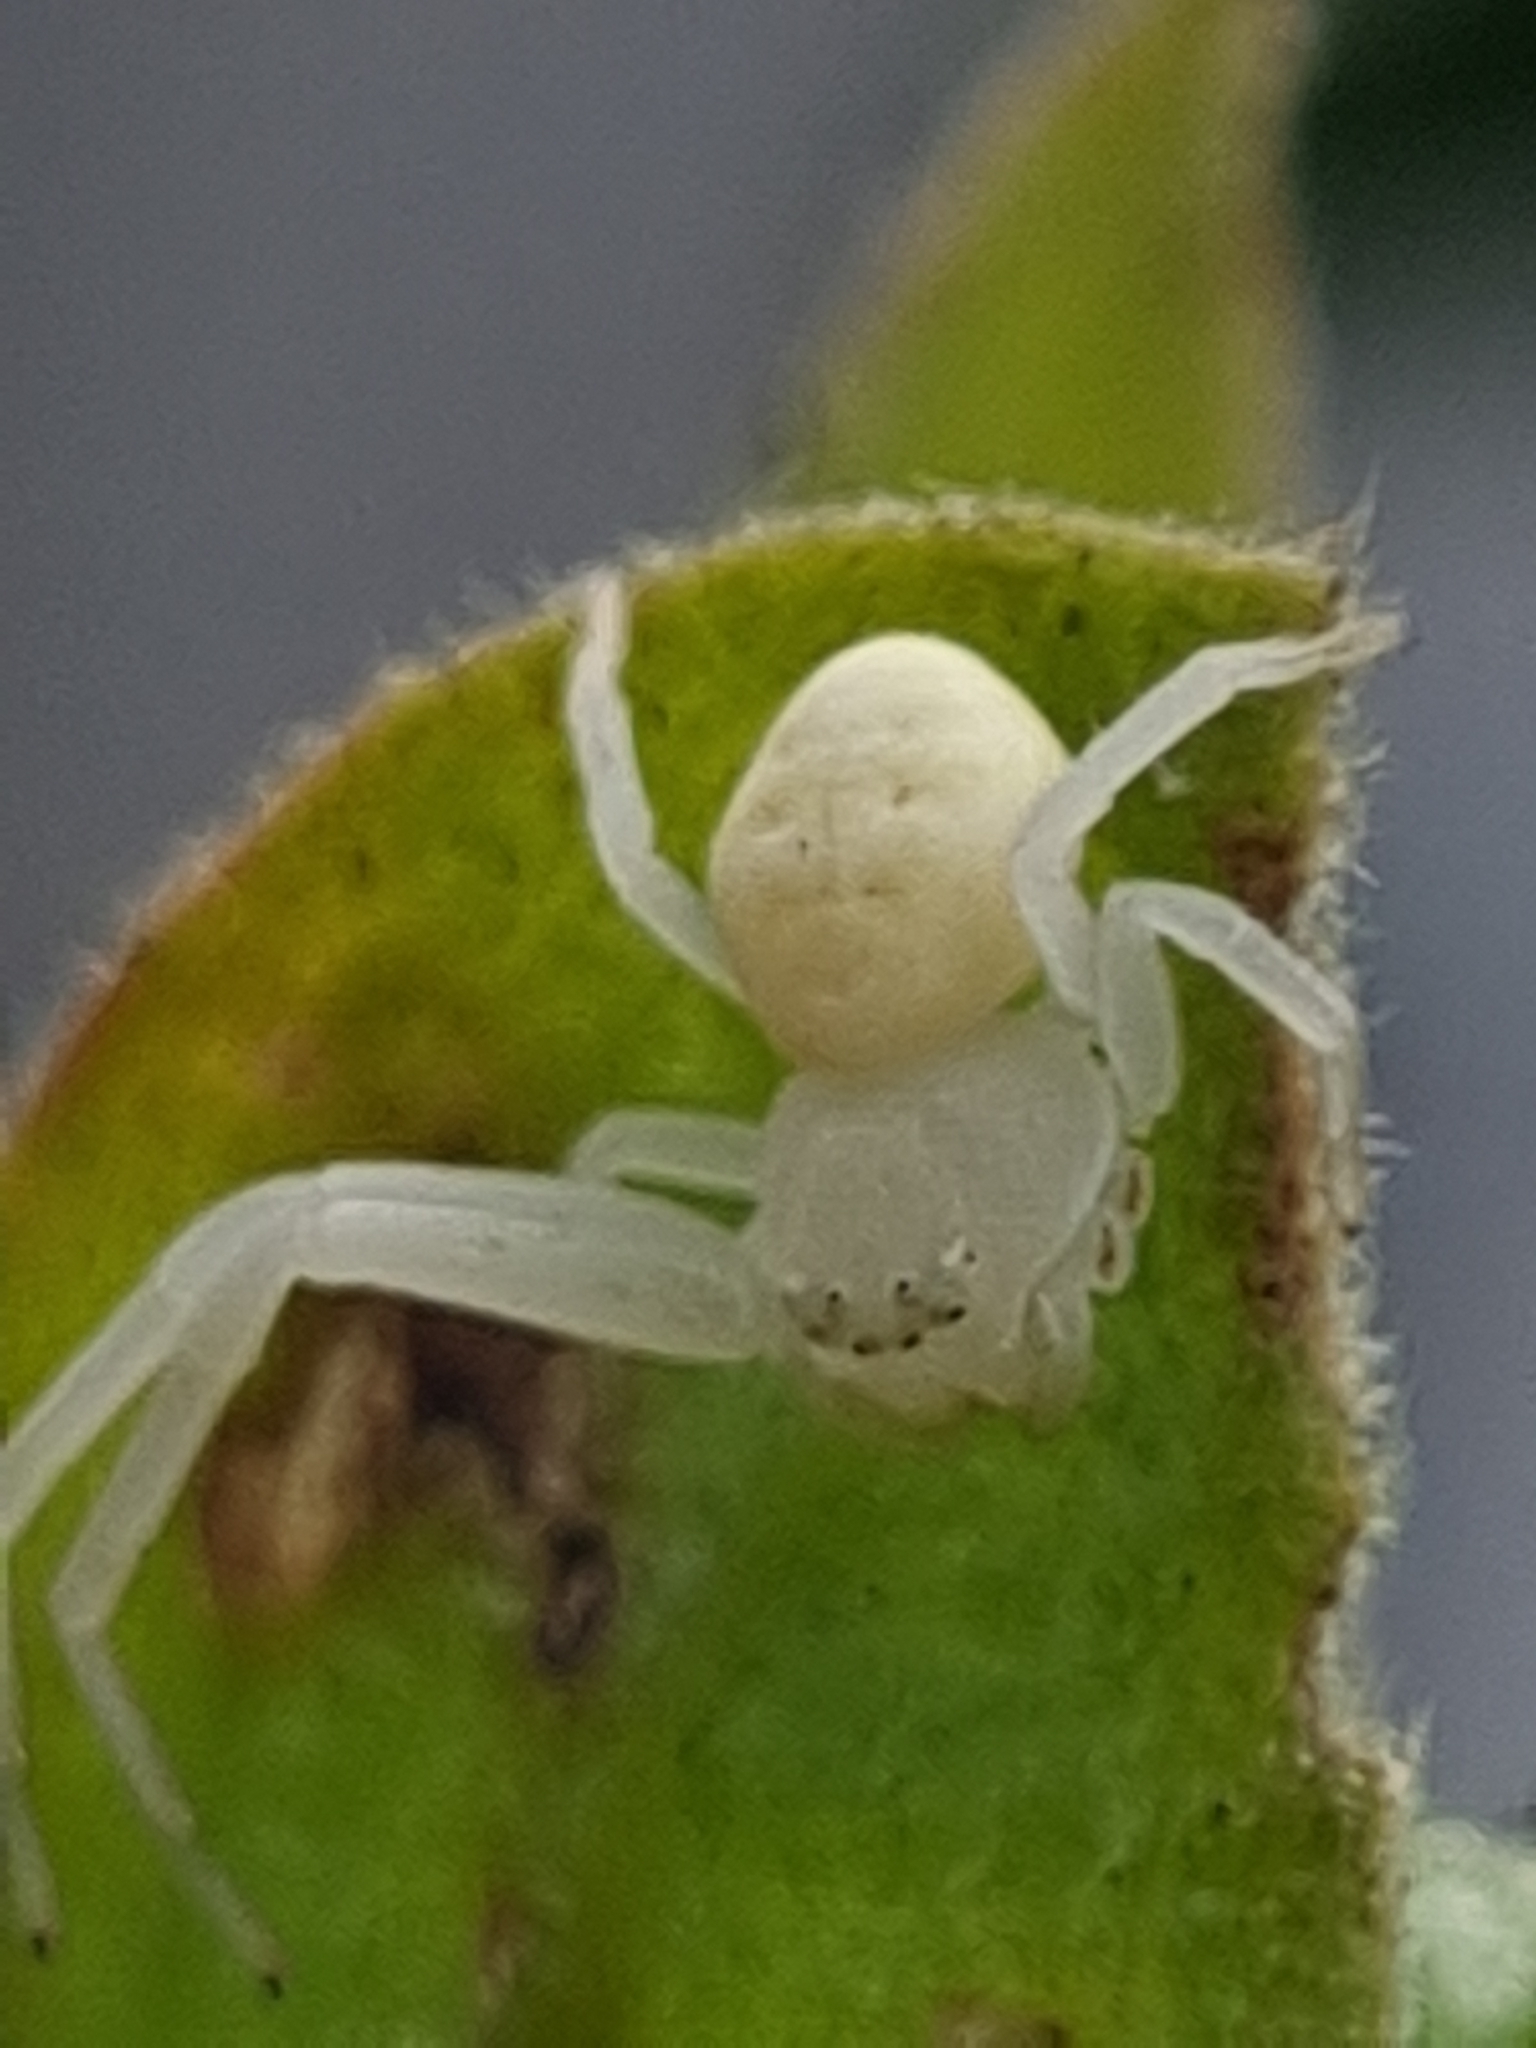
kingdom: Animalia
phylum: Arthropoda
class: Arachnida
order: Araneae
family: Thomisidae
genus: Zygometis
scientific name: Zygometis xanthogaster
